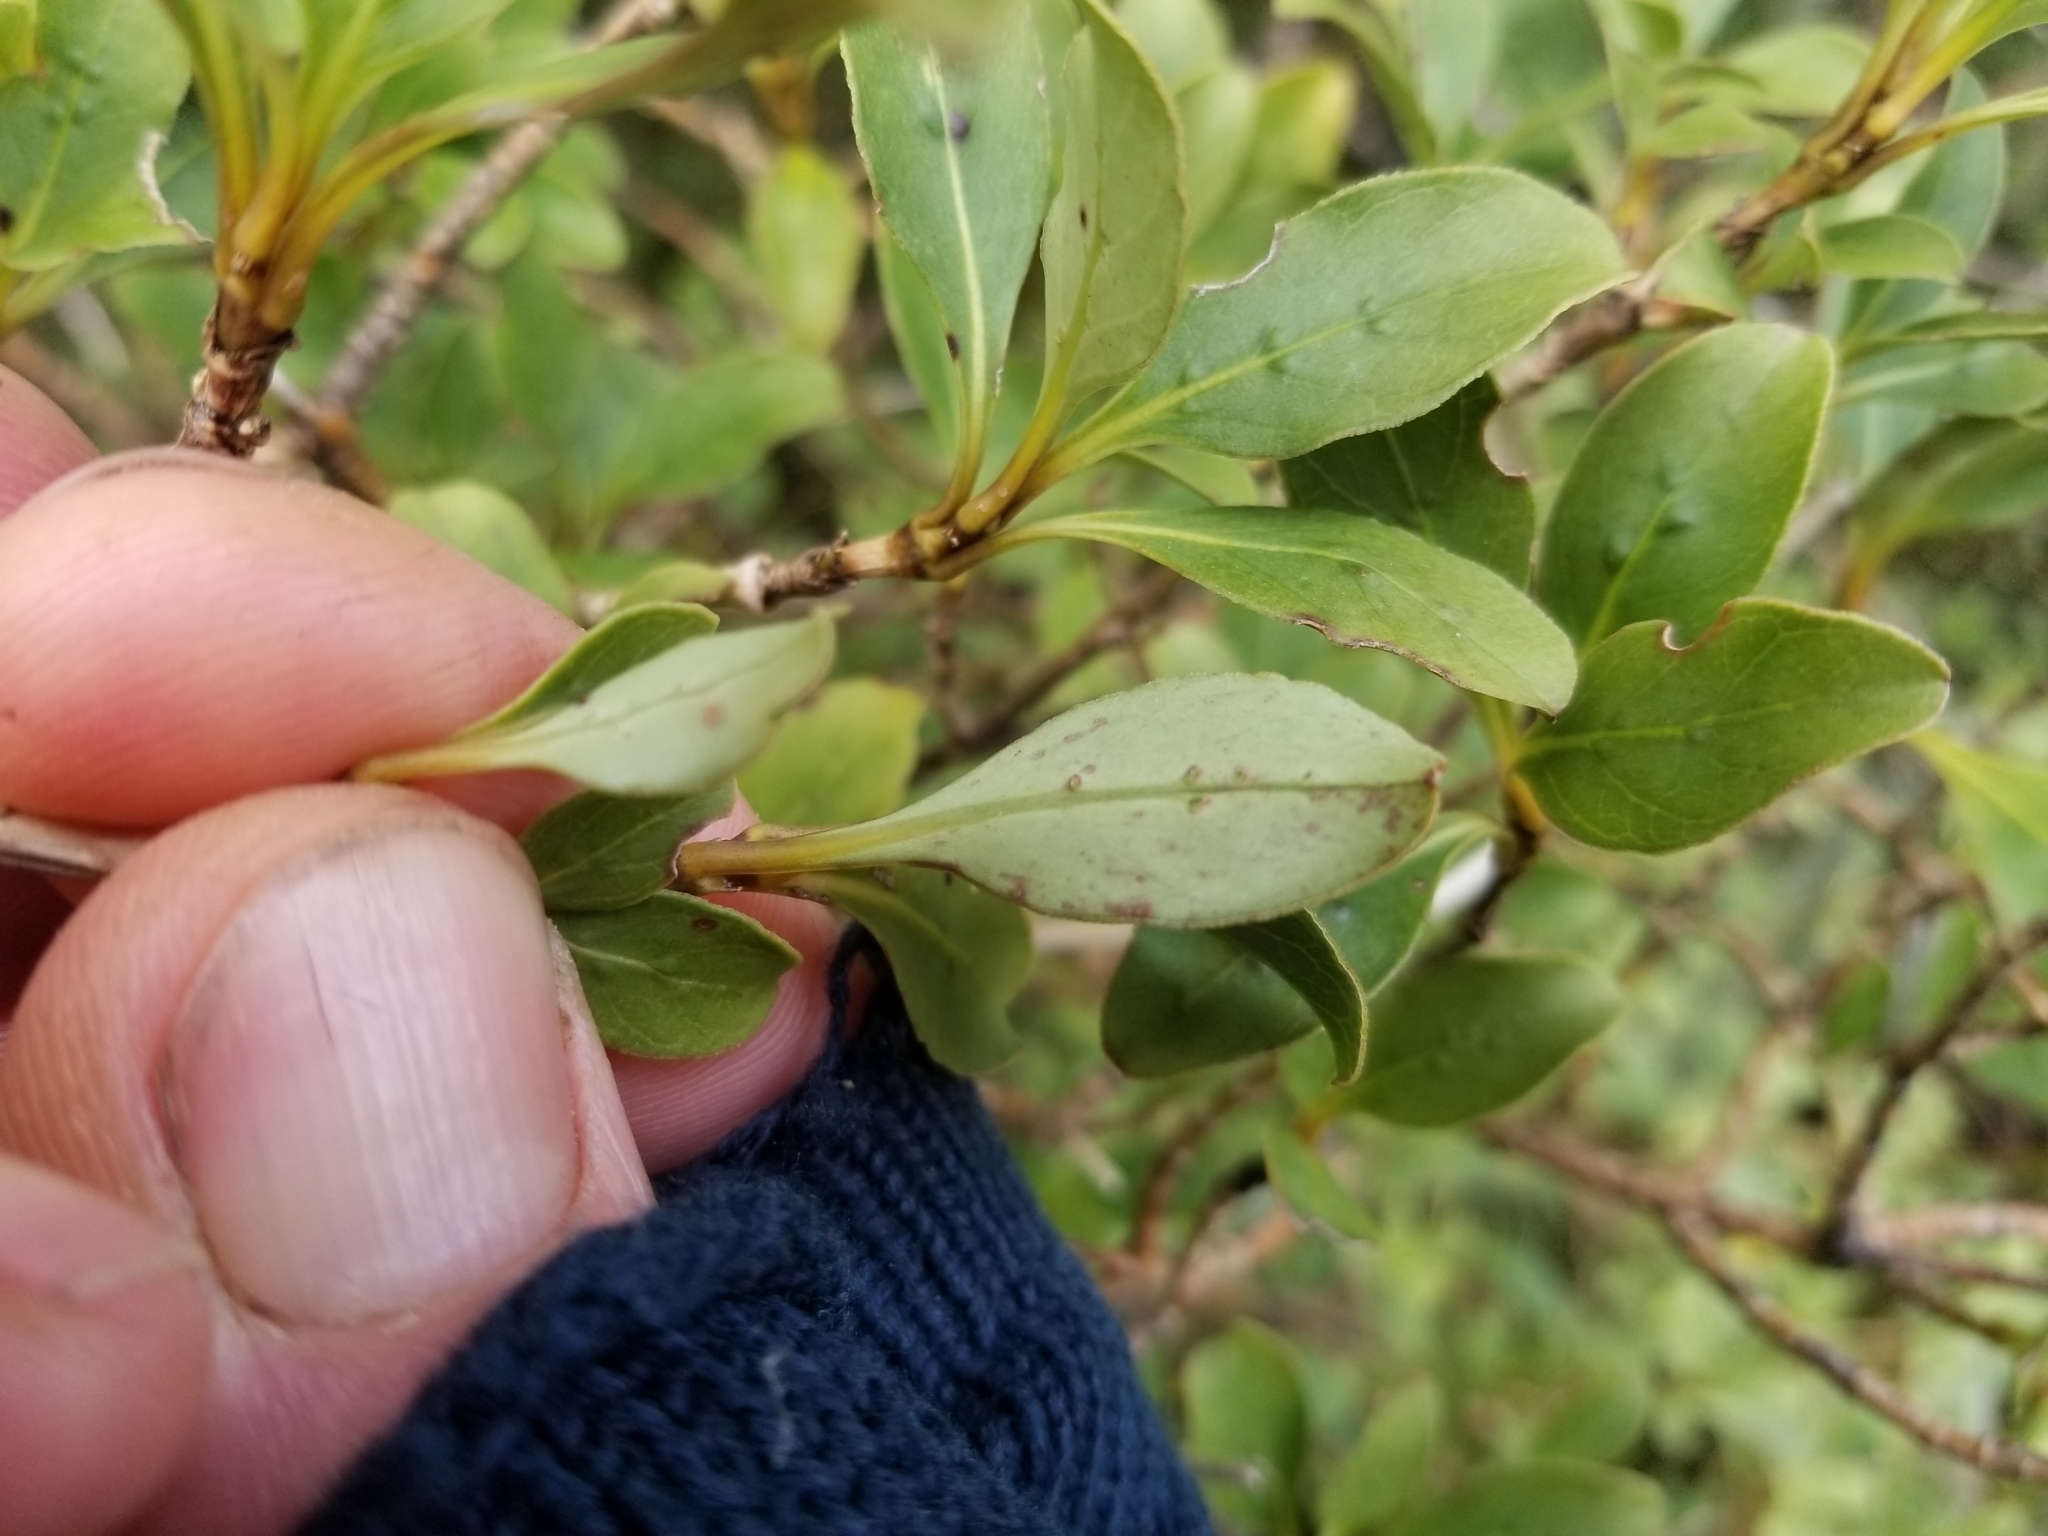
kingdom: Plantae
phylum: Tracheophyta
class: Magnoliopsida
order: Gentianales
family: Rubiaceae
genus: Coprosma
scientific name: Coprosma foetidissima
